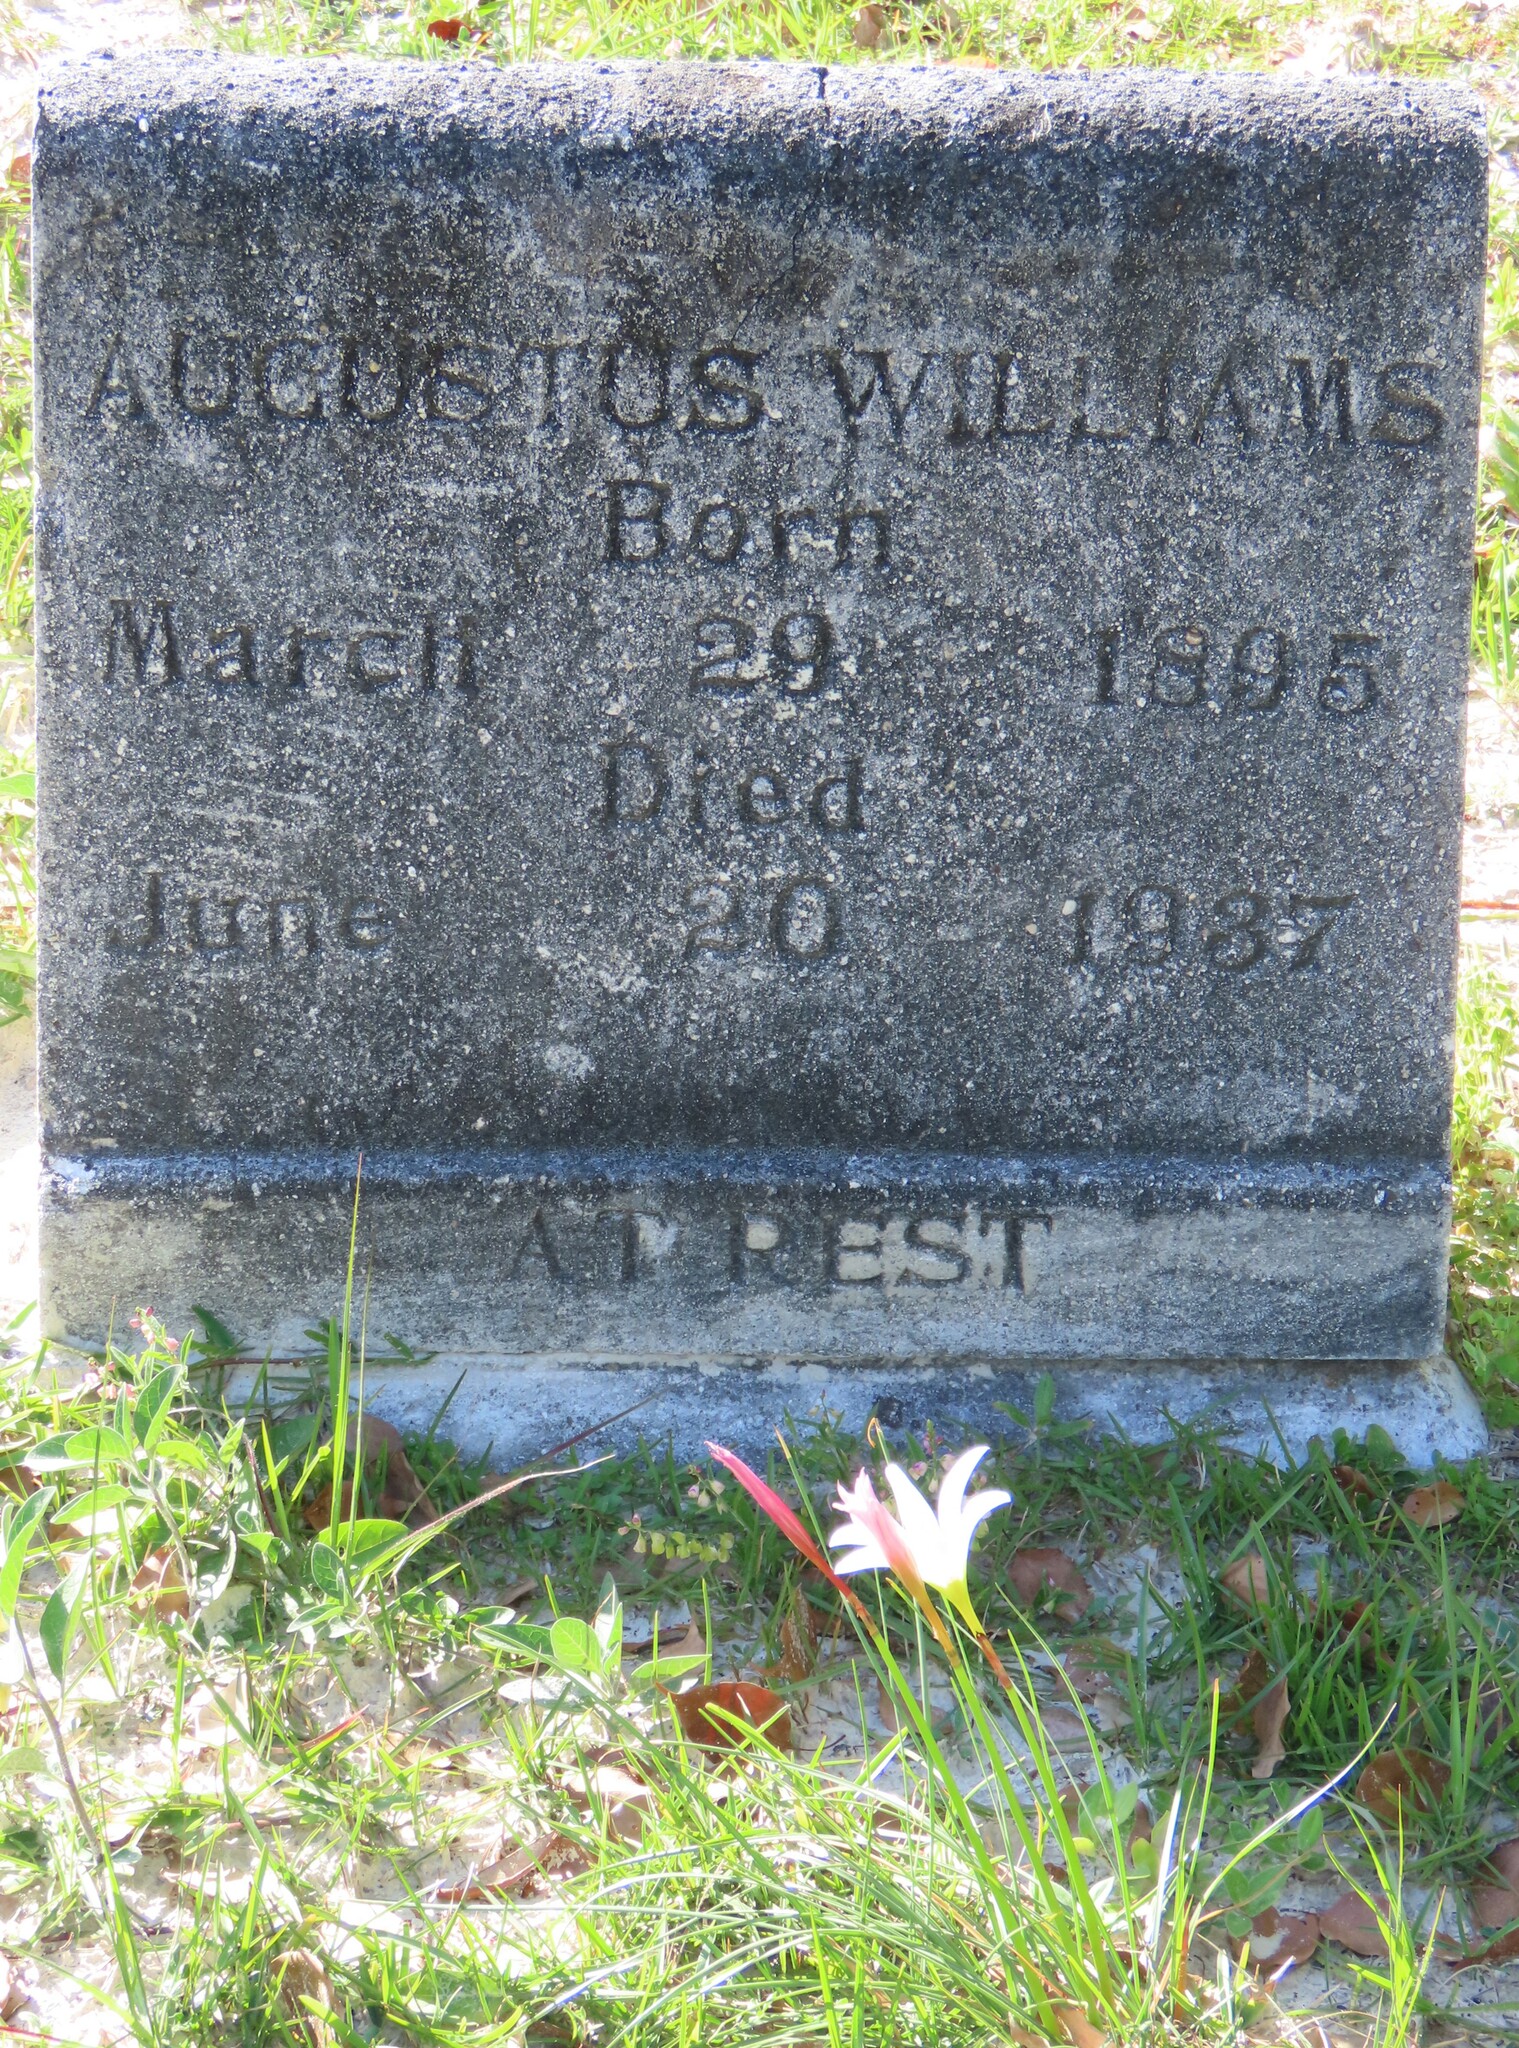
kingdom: Plantae
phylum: Tracheophyta
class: Liliopsida
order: Asparagales
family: Amaryllidaceae
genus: Zephyranthes
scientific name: Zephyranthes treatiae
